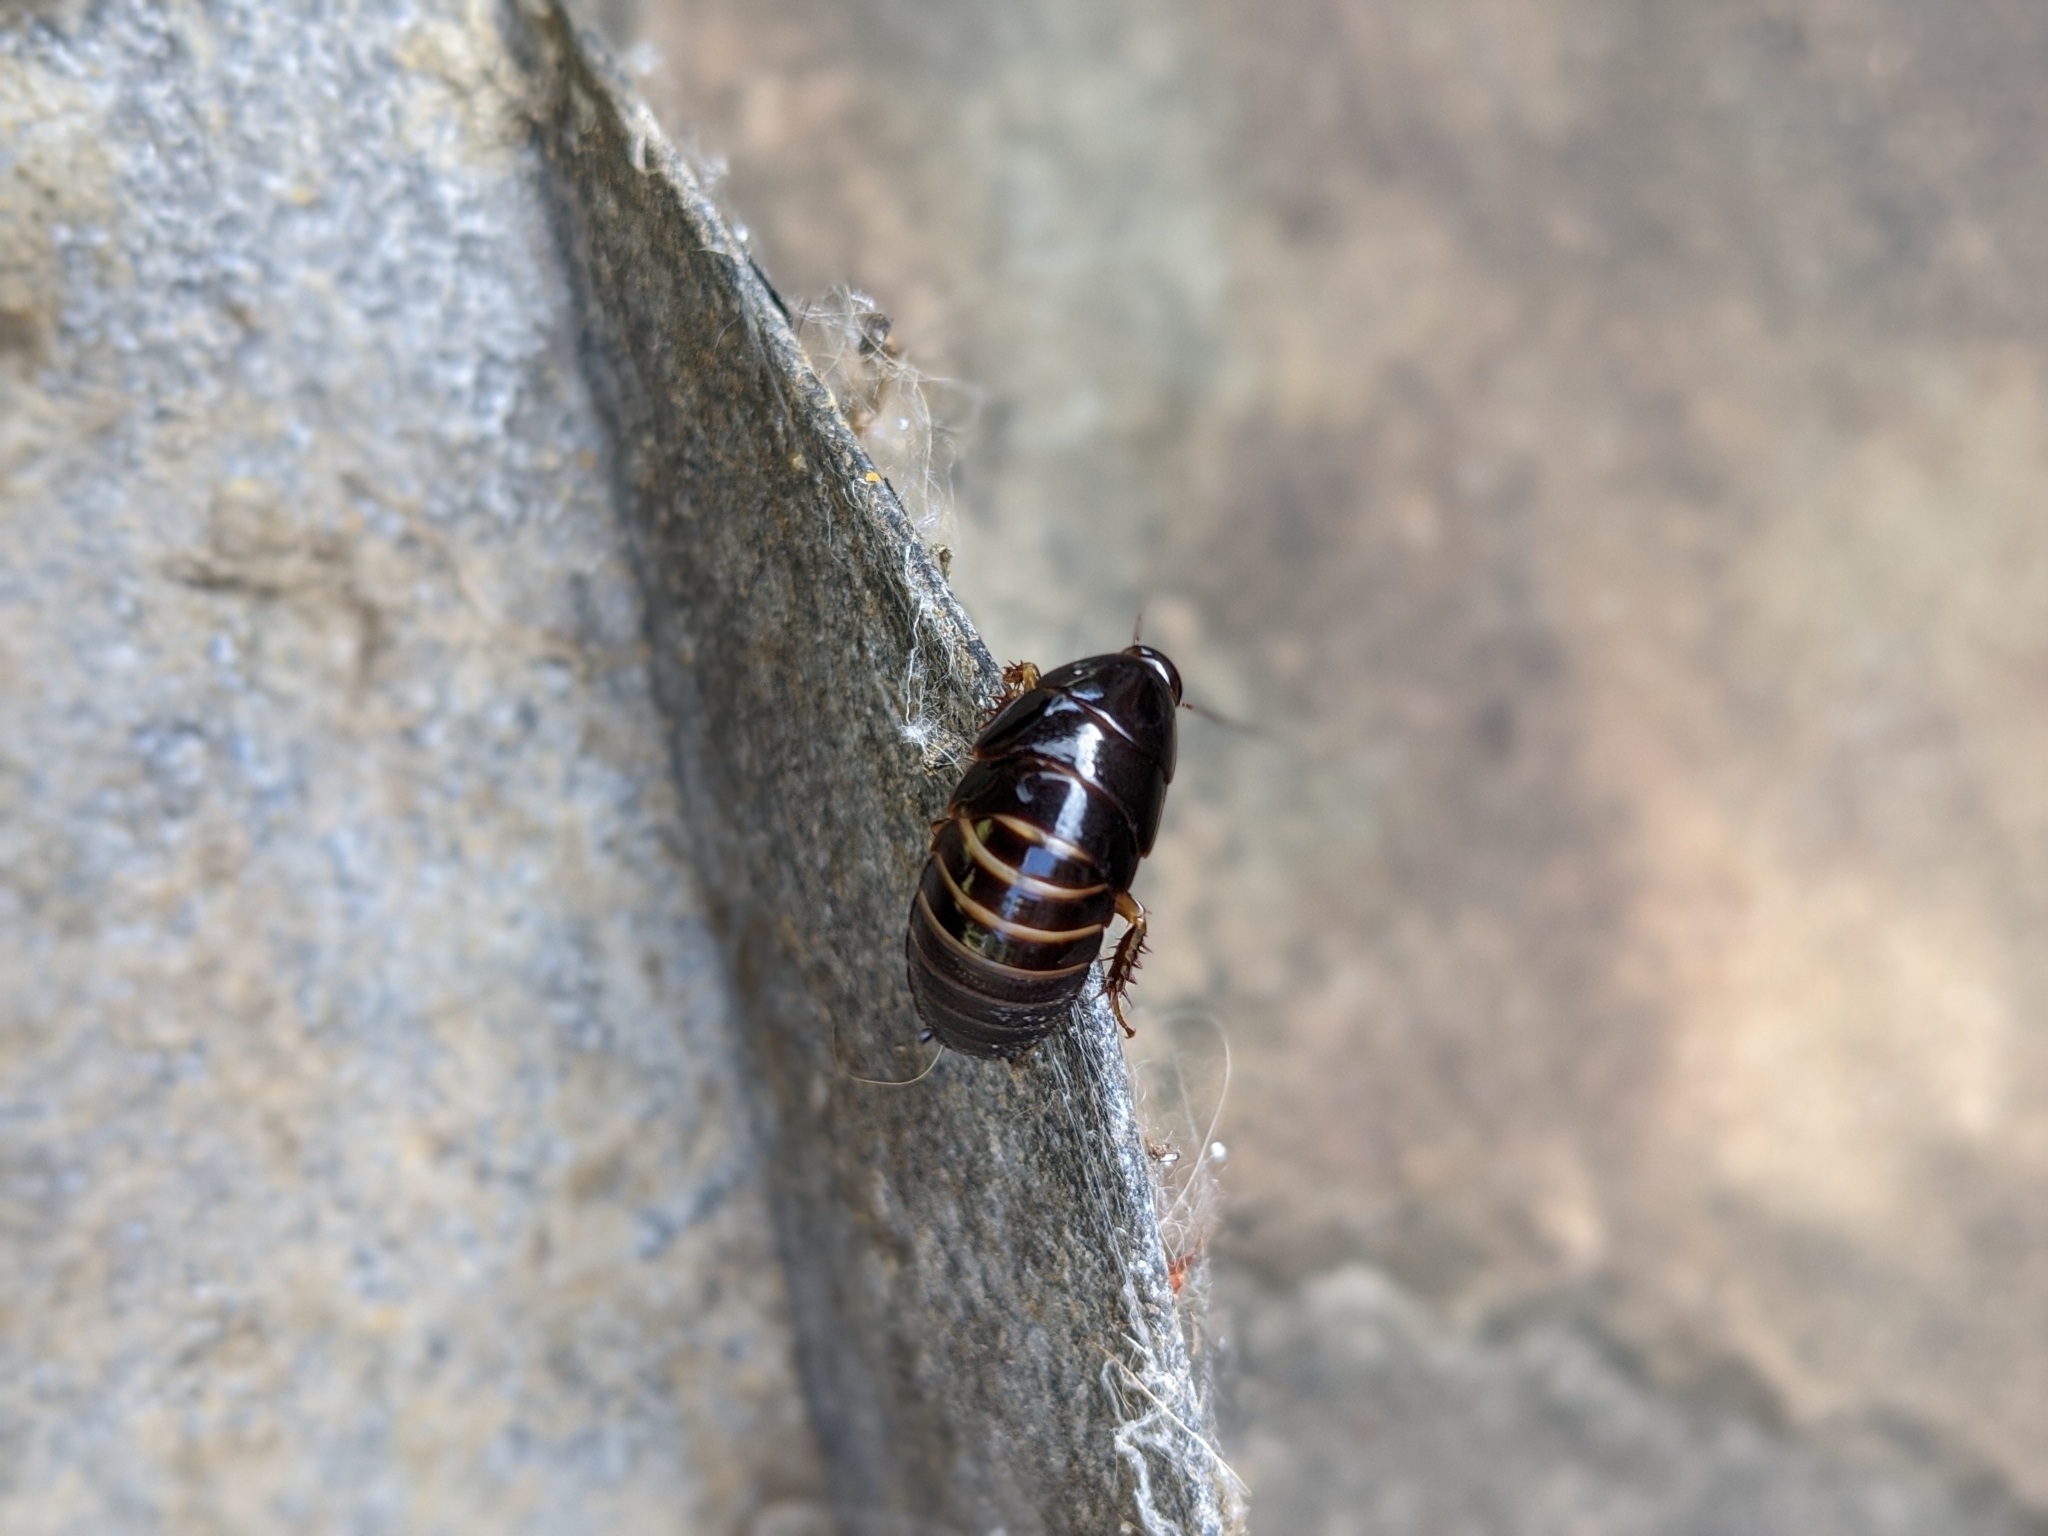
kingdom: Animalia
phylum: Arthropoda
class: Insecta
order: Blattodea
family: Blaberidae
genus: Pycnoscelus
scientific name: Pycnoscelus surinamensis
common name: Surinam cockroach
